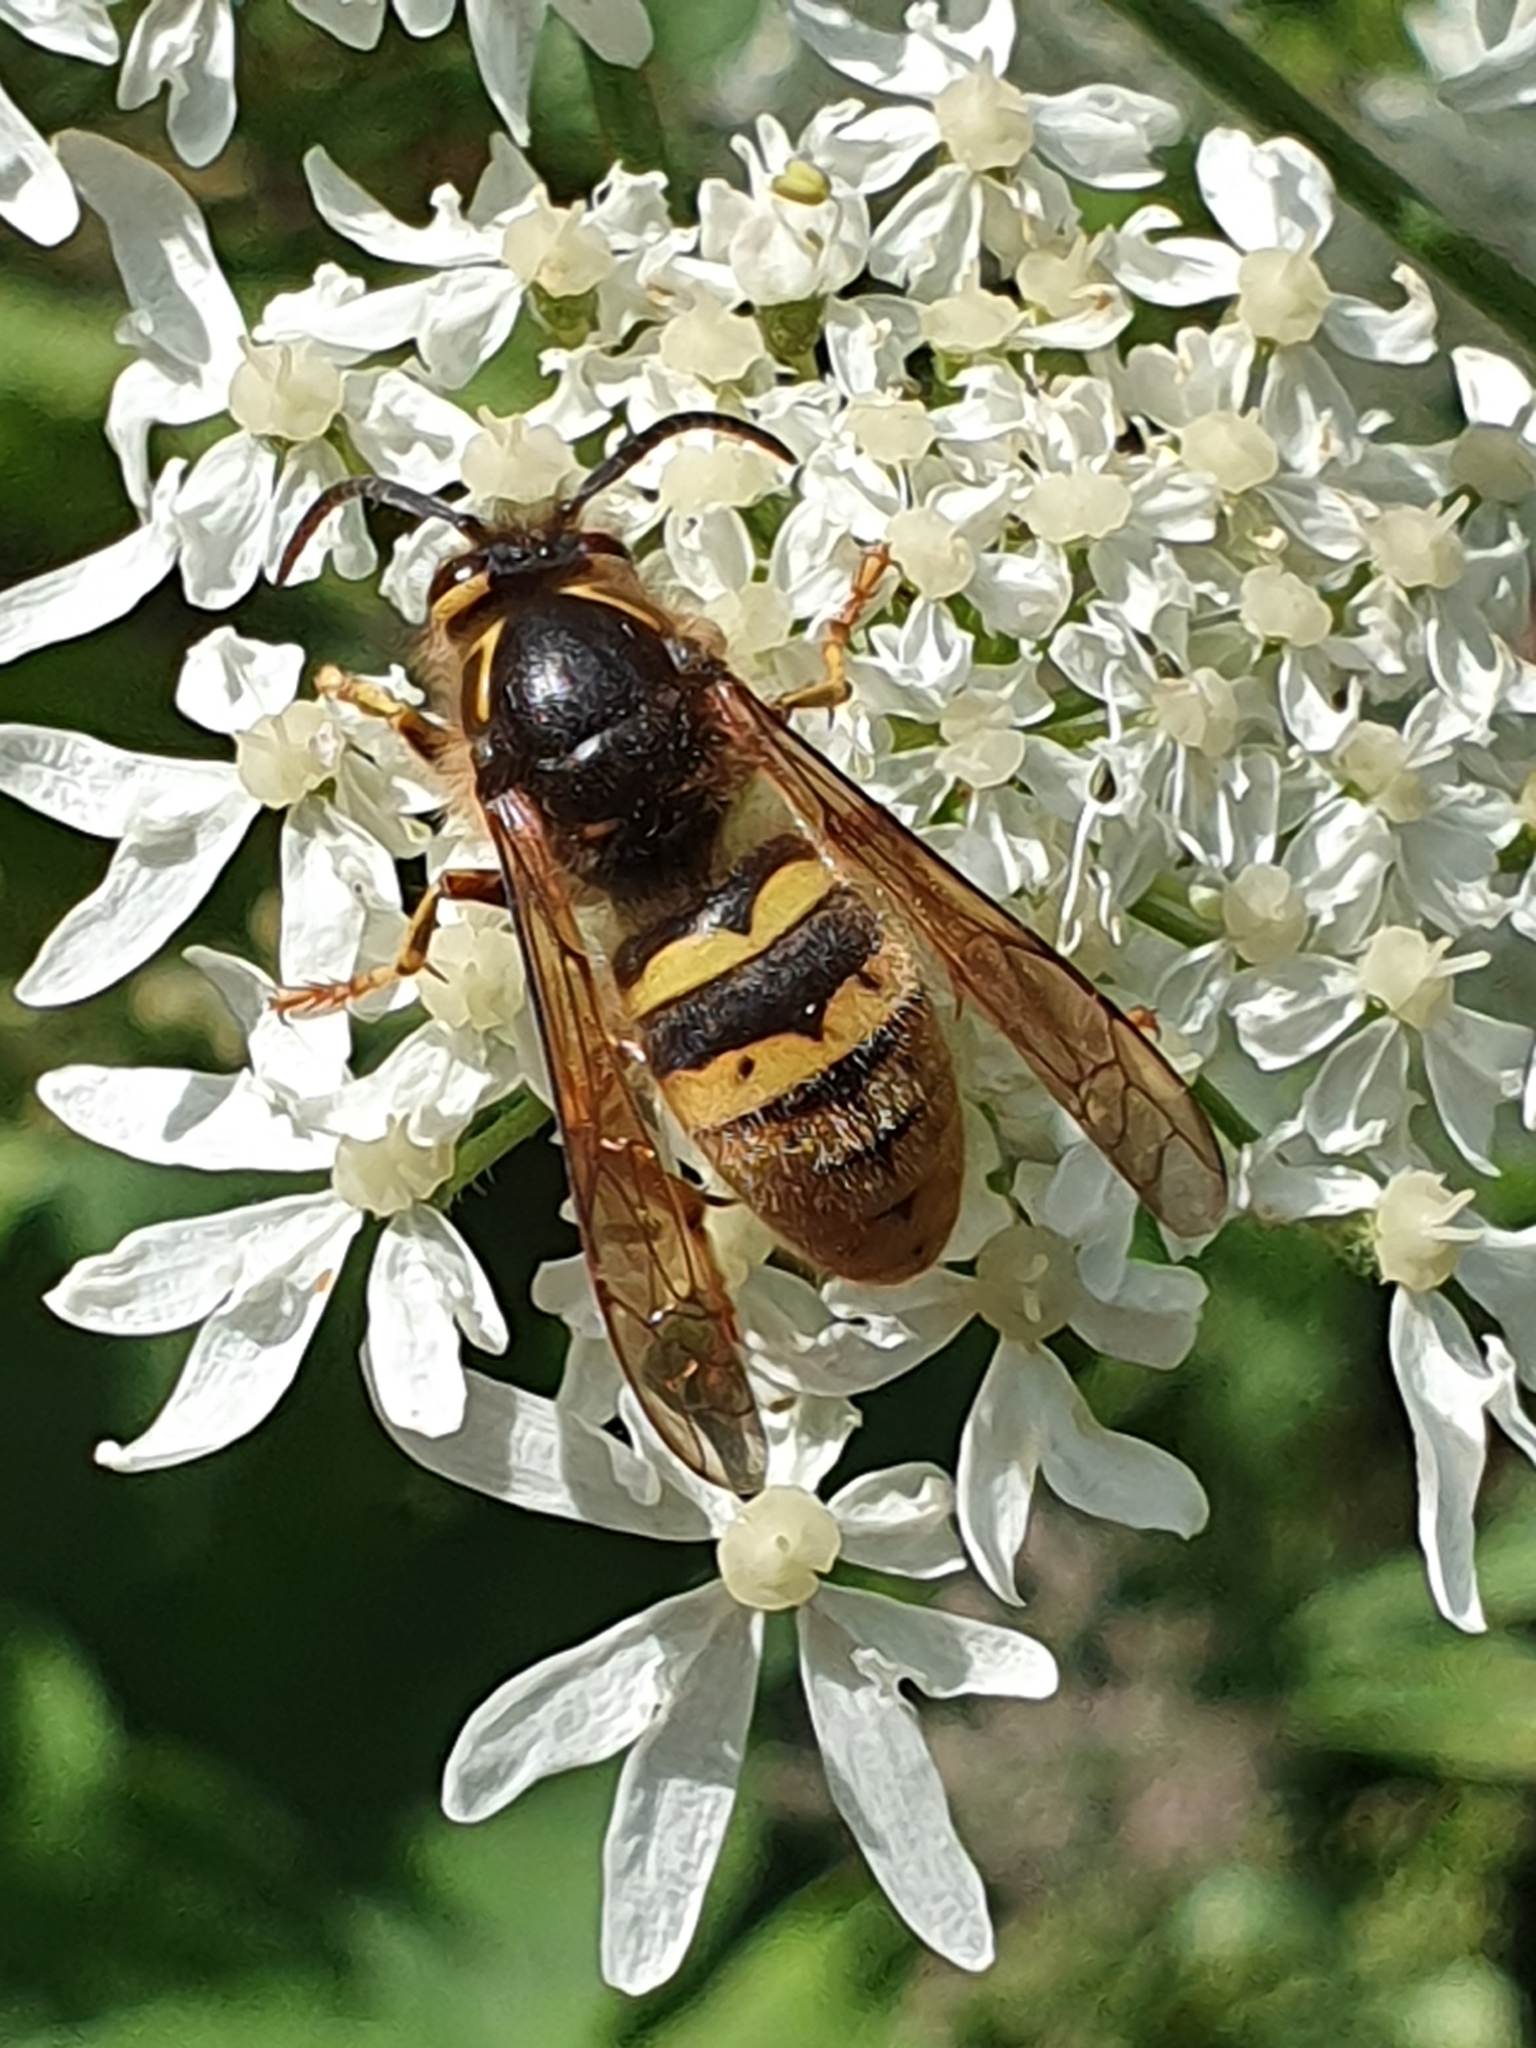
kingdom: Animalia
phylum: Arthropoda
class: Insecta
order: Hymenoptera
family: Vespidae
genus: Dolichovespula
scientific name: Dolichovespula media
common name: Median wasp
